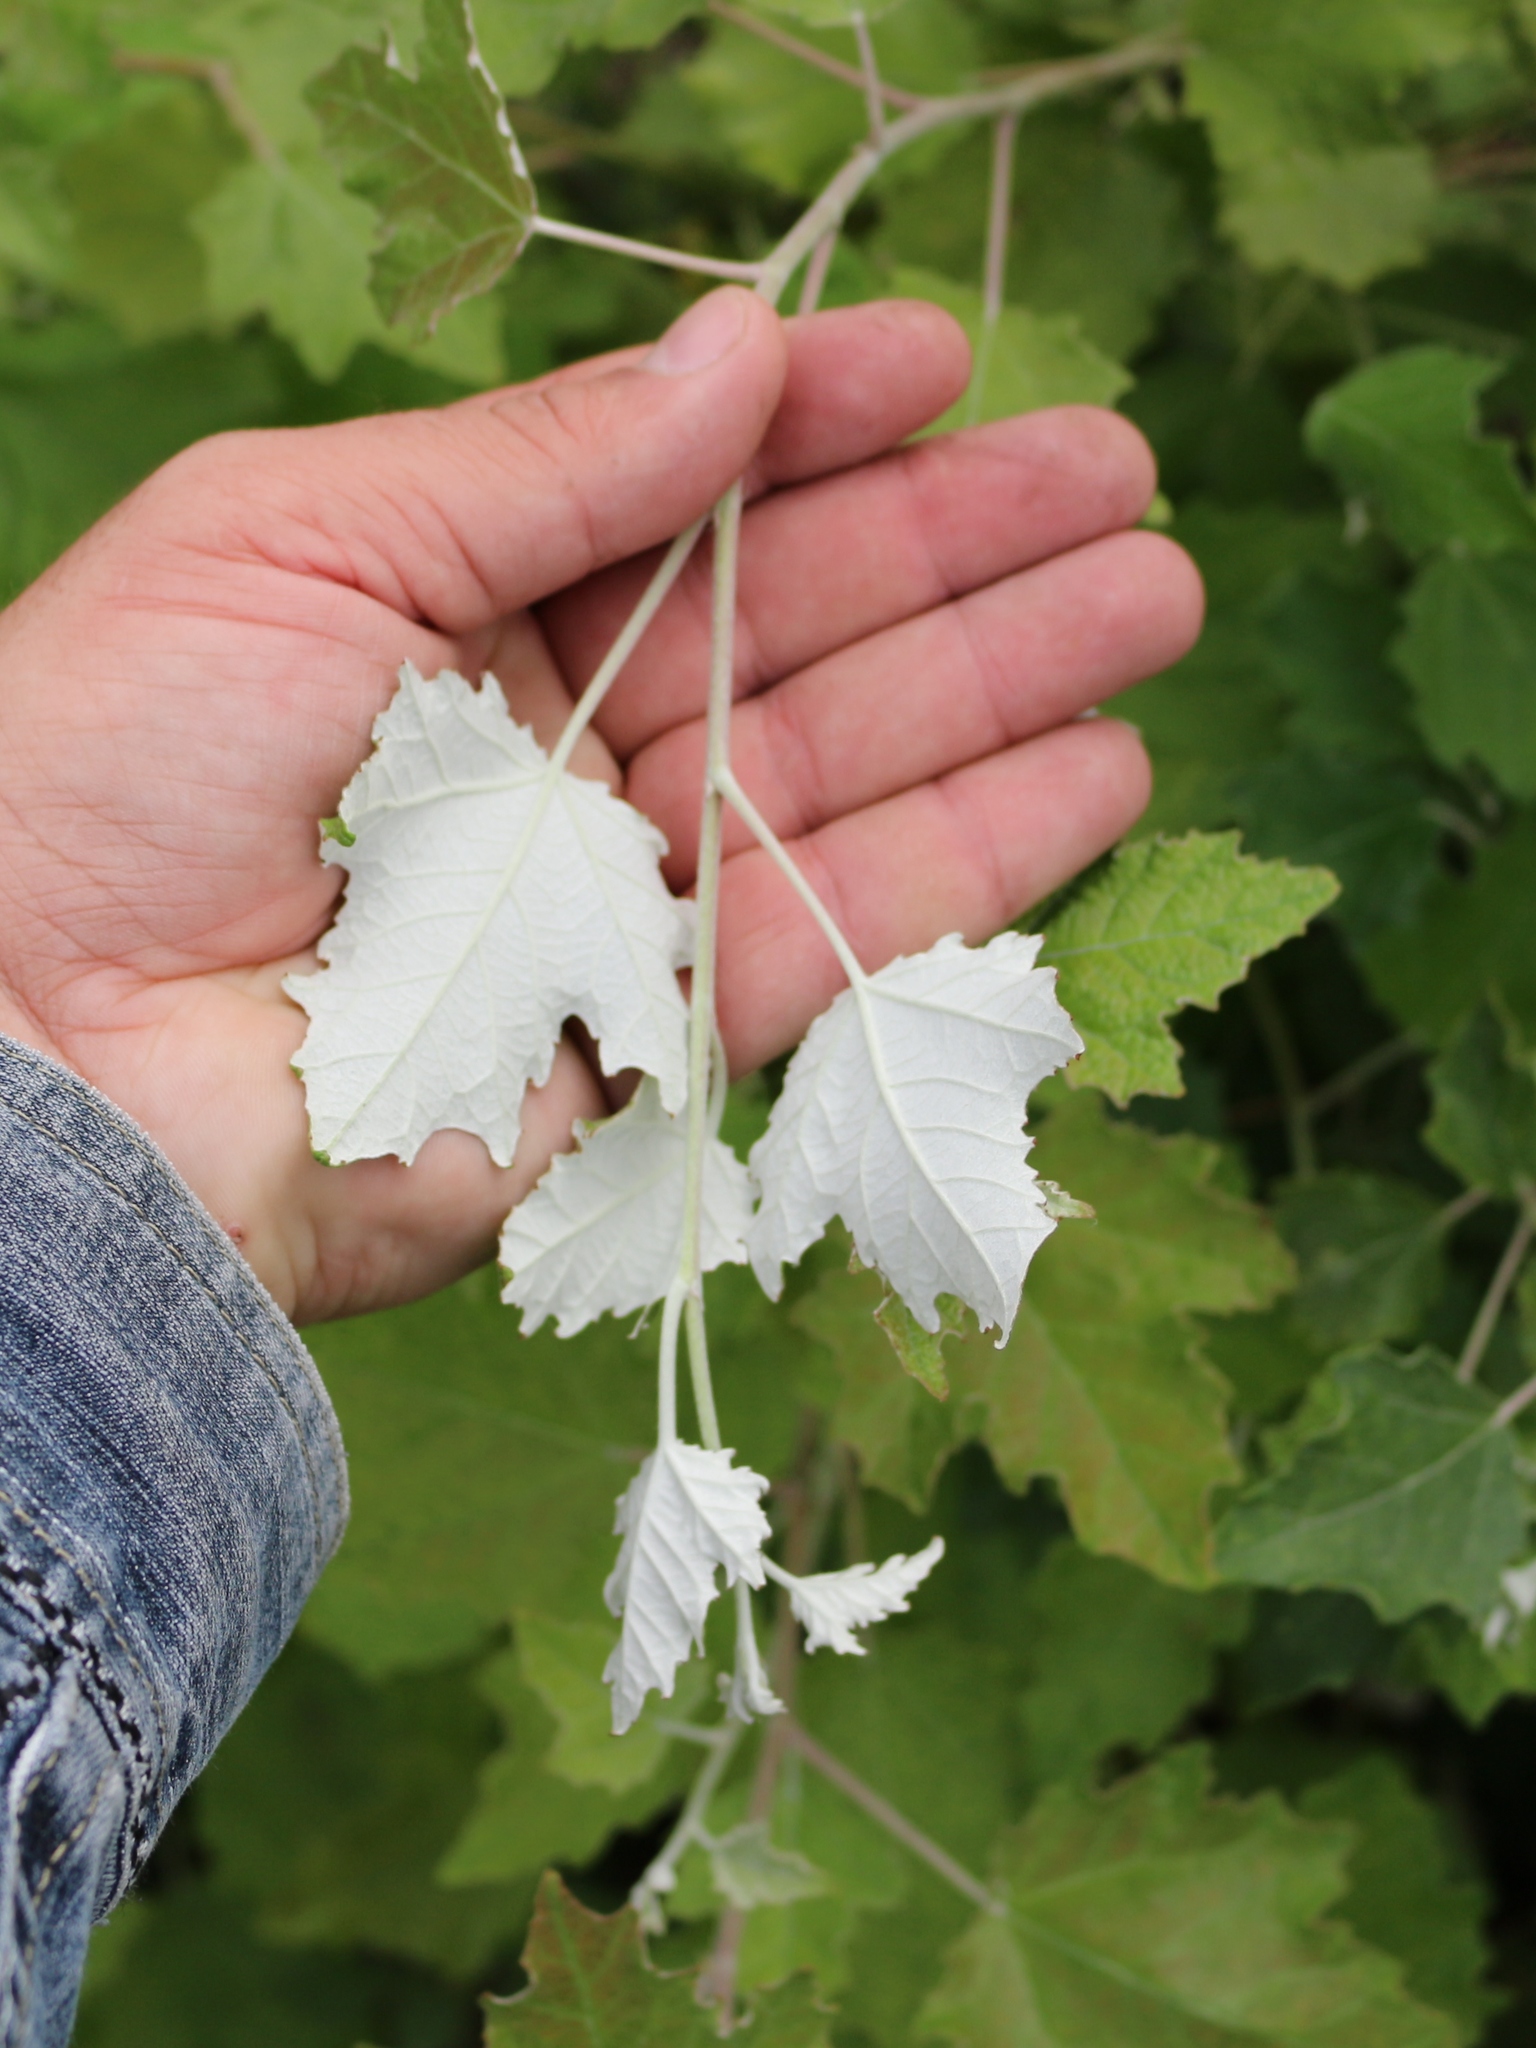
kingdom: Plantae
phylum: Tracheophyta
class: Magnoliopsida
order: Malpighiales
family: Salicaceae
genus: Populus
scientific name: Populus alba
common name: White poplar
